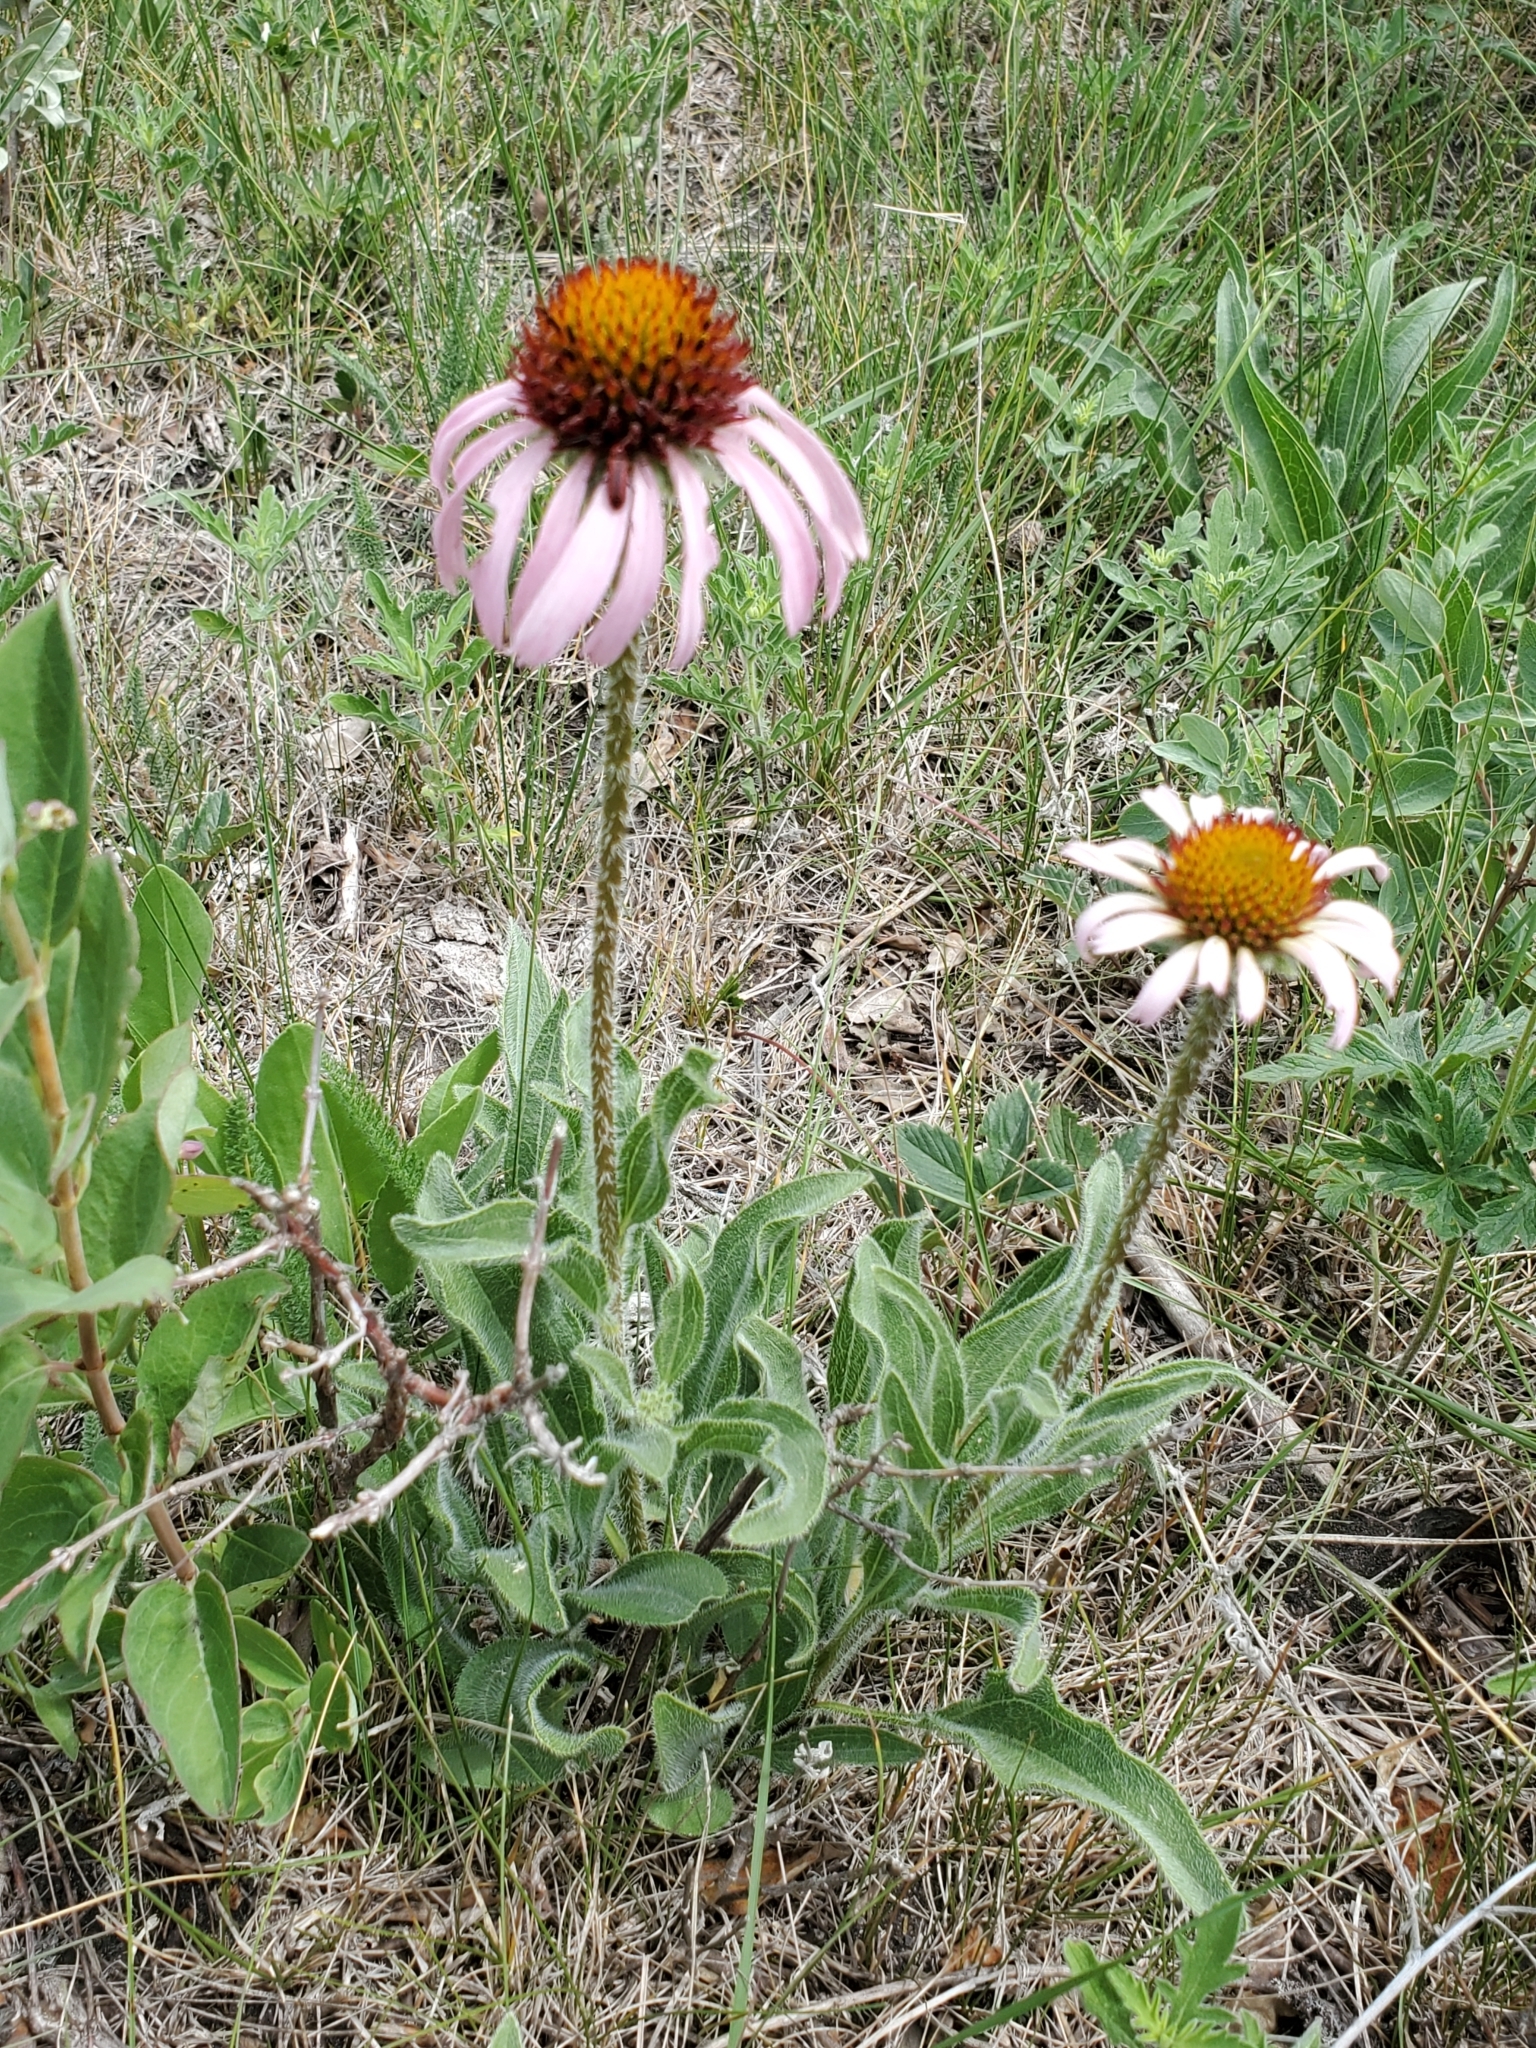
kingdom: Plantae
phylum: Tracheophyta
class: Magnoliopsida
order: Asterales
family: Asteraceae
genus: Echinacea
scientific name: Echinacea angustifolia
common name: Black-sampson echinacea
